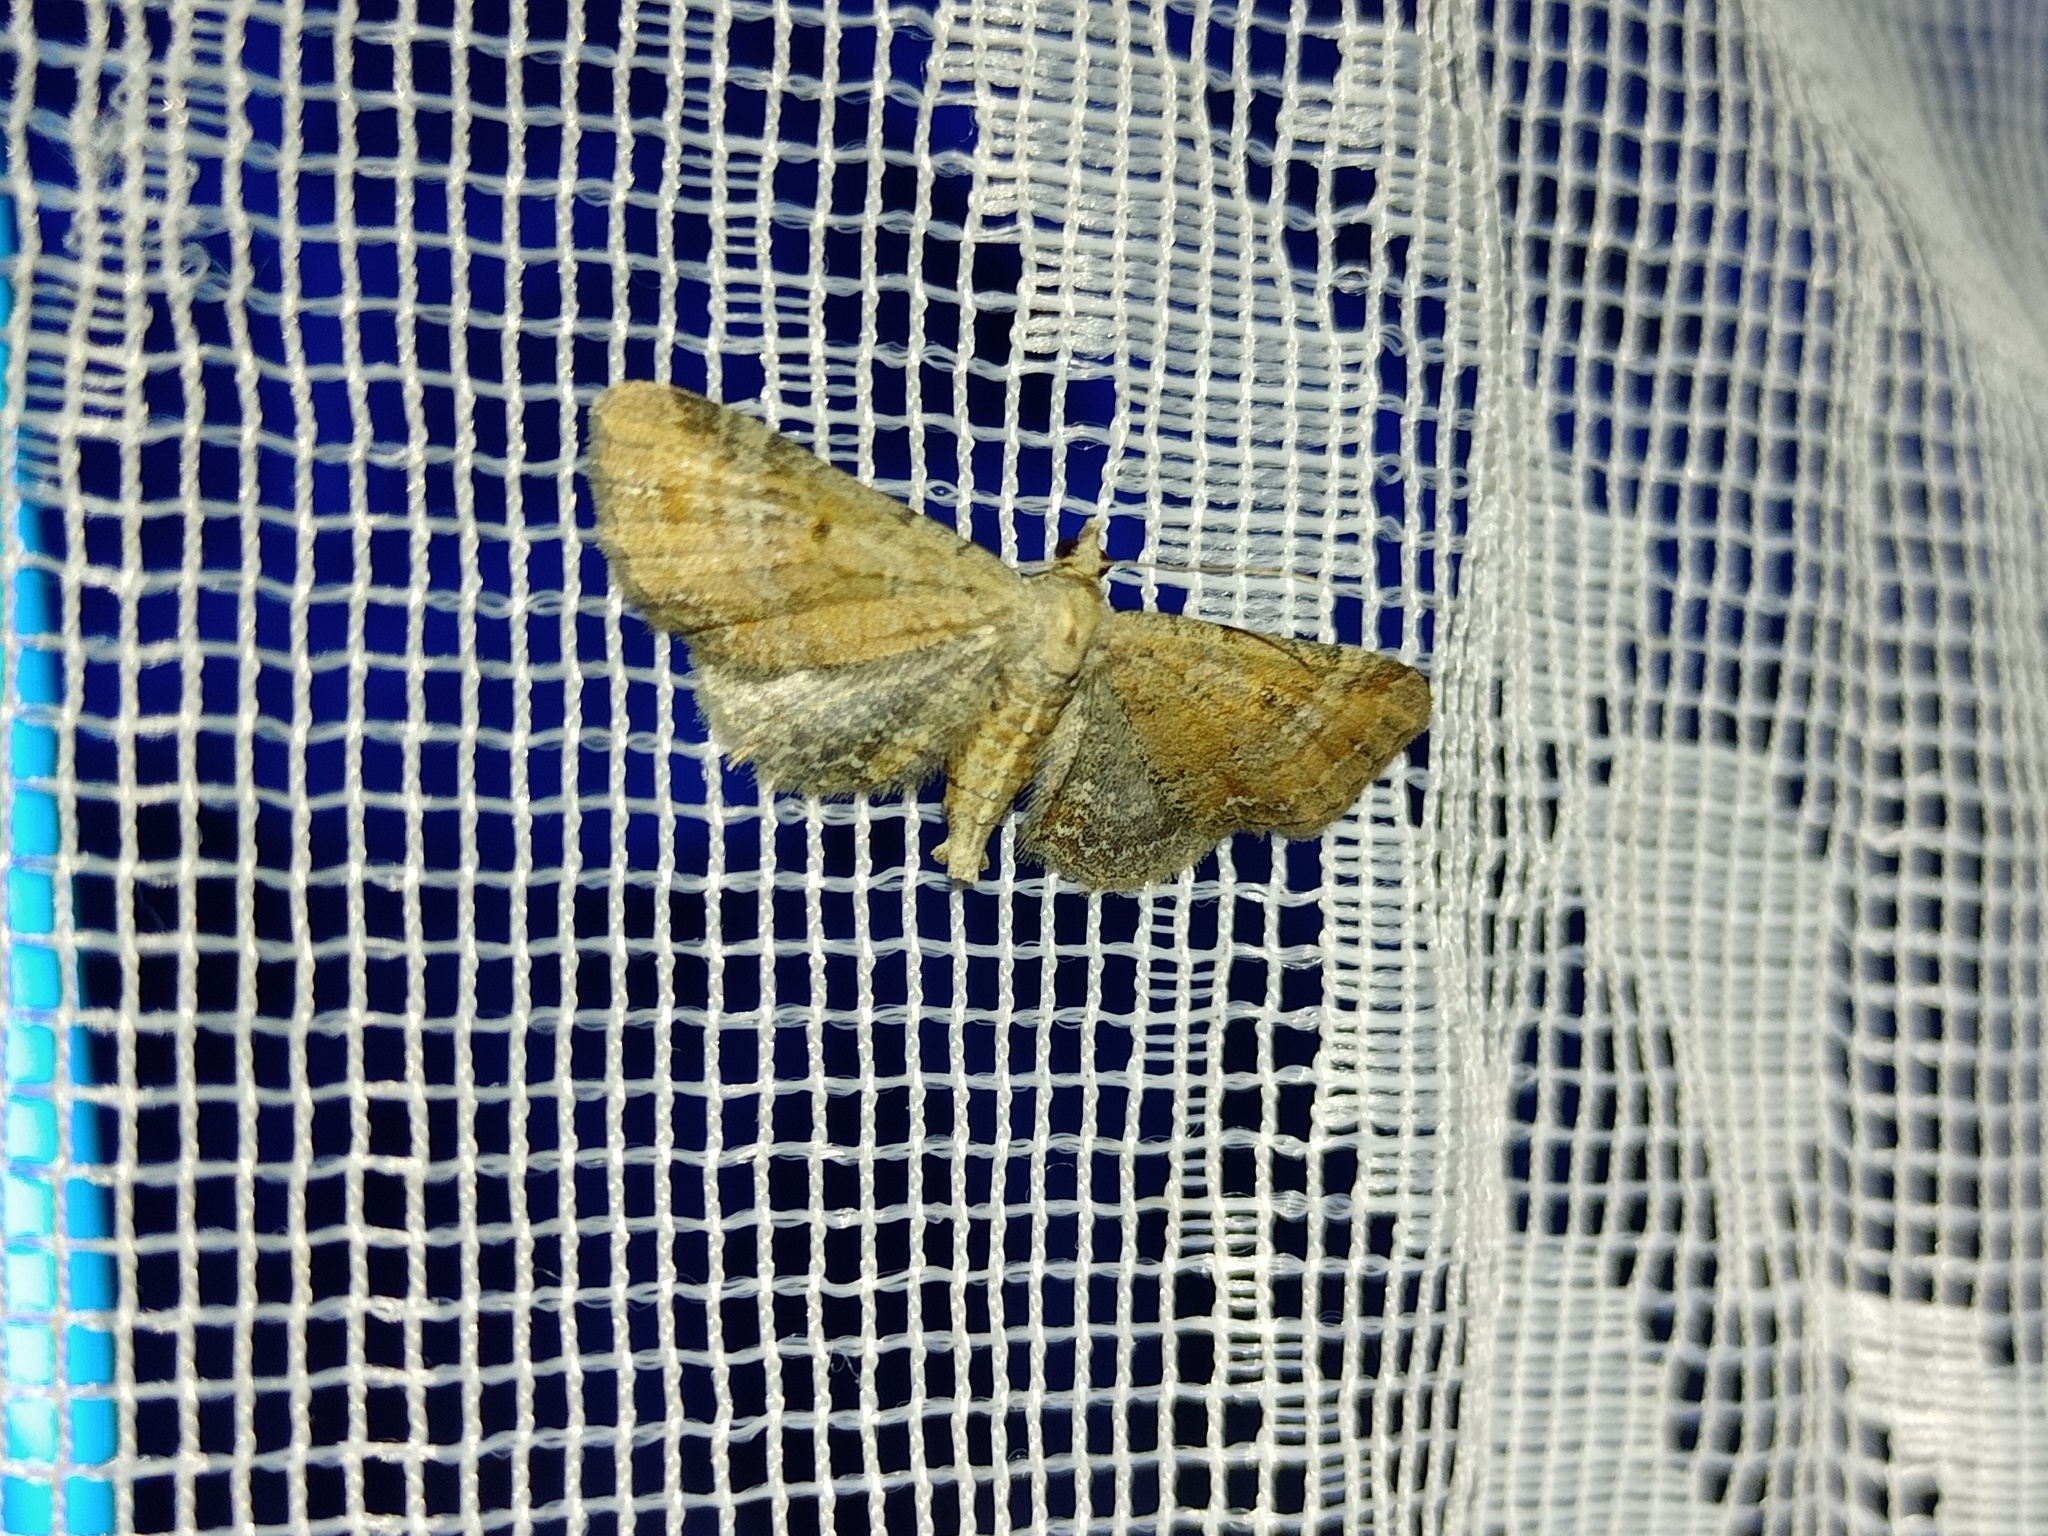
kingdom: Animalia
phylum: Arthropoda
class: Insecta
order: Lepidoptera
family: Geometridae
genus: Eupithecia
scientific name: Eupithecia simpliciata
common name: Plain pug
